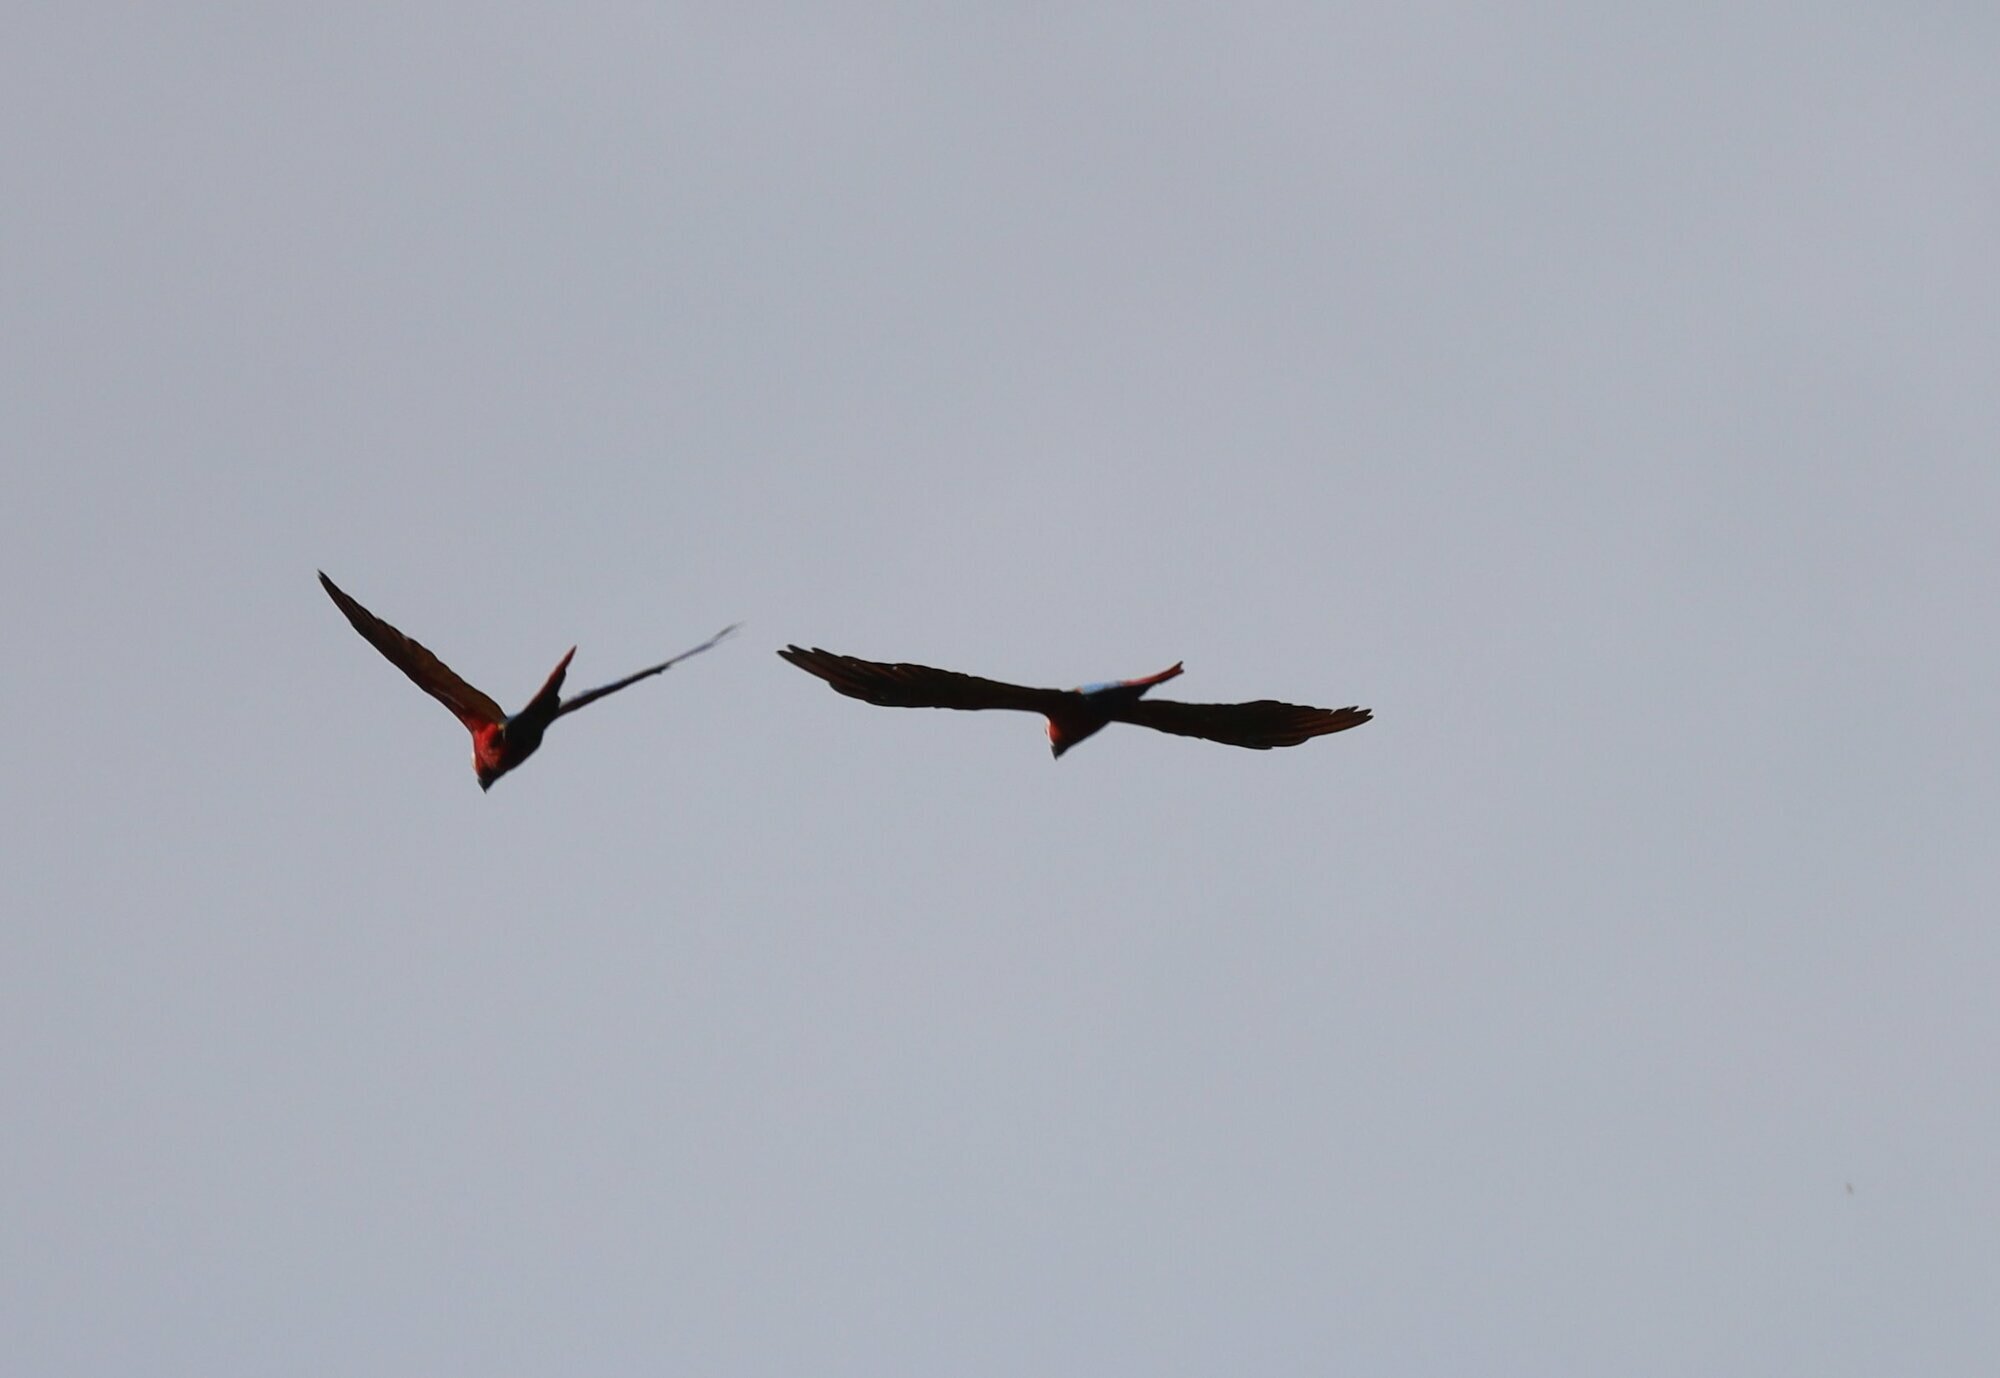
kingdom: Animalia
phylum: Chordata
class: Aves
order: Psittaciformes
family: Psittacidae
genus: Ara
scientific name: Ara macao
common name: Scarlet macaw
